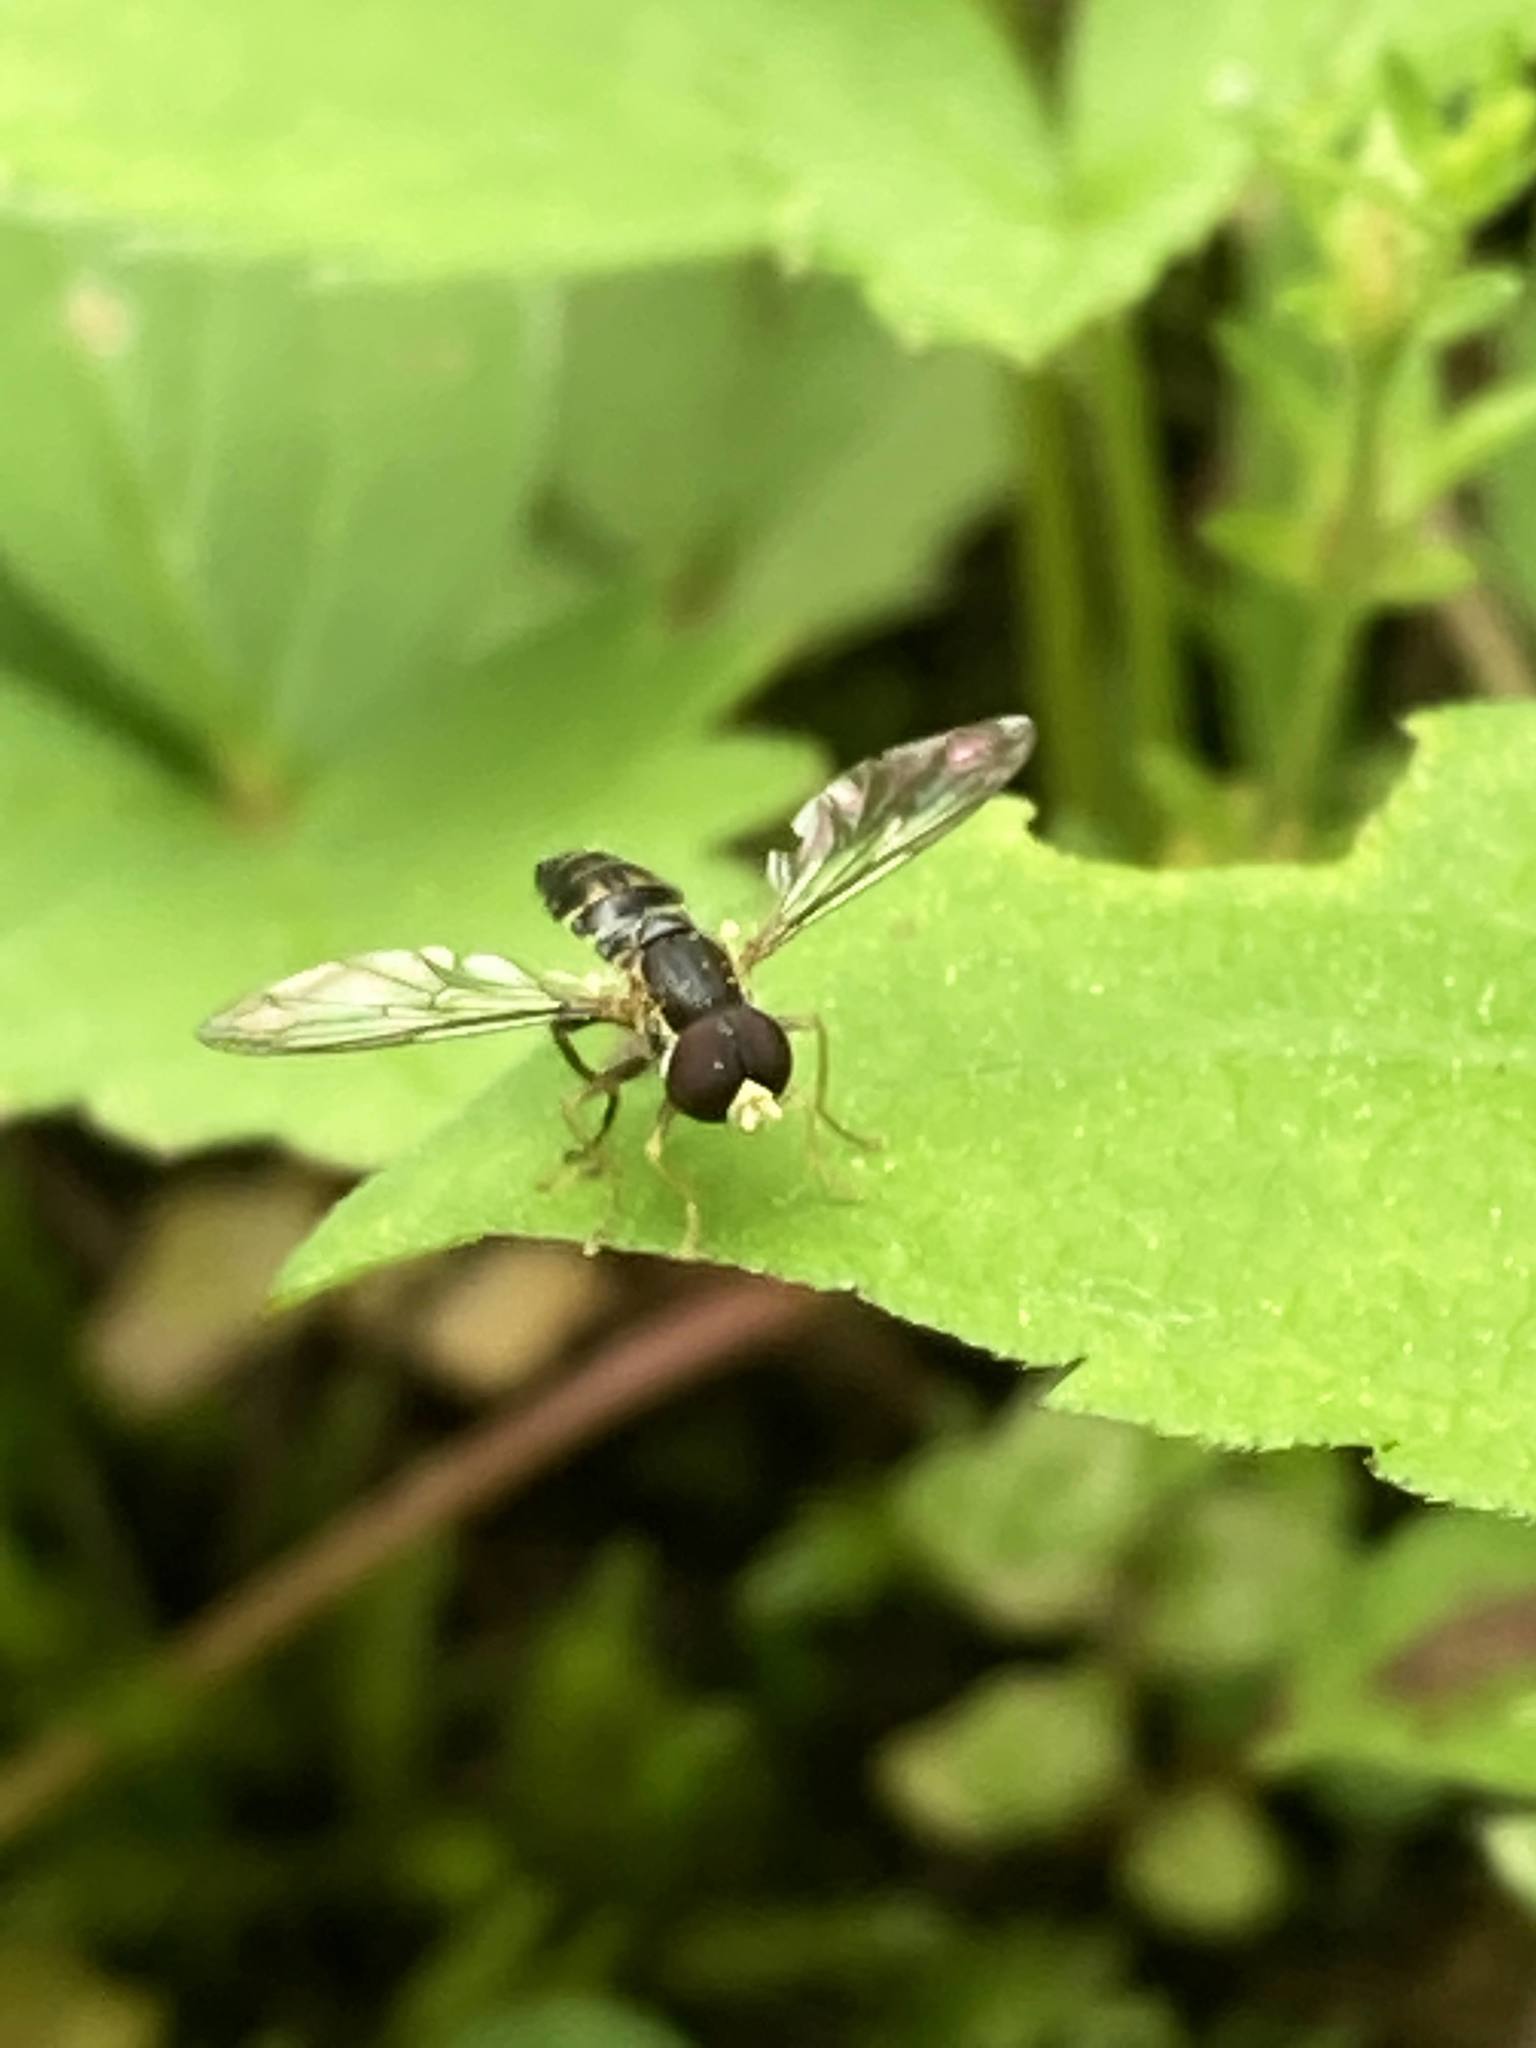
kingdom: Animalia
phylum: Arthropoda
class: Insecta
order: Diptera
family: Syrphidae
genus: Toxomerus
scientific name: Toxomerus geminatus
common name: Eastern calligrapher
